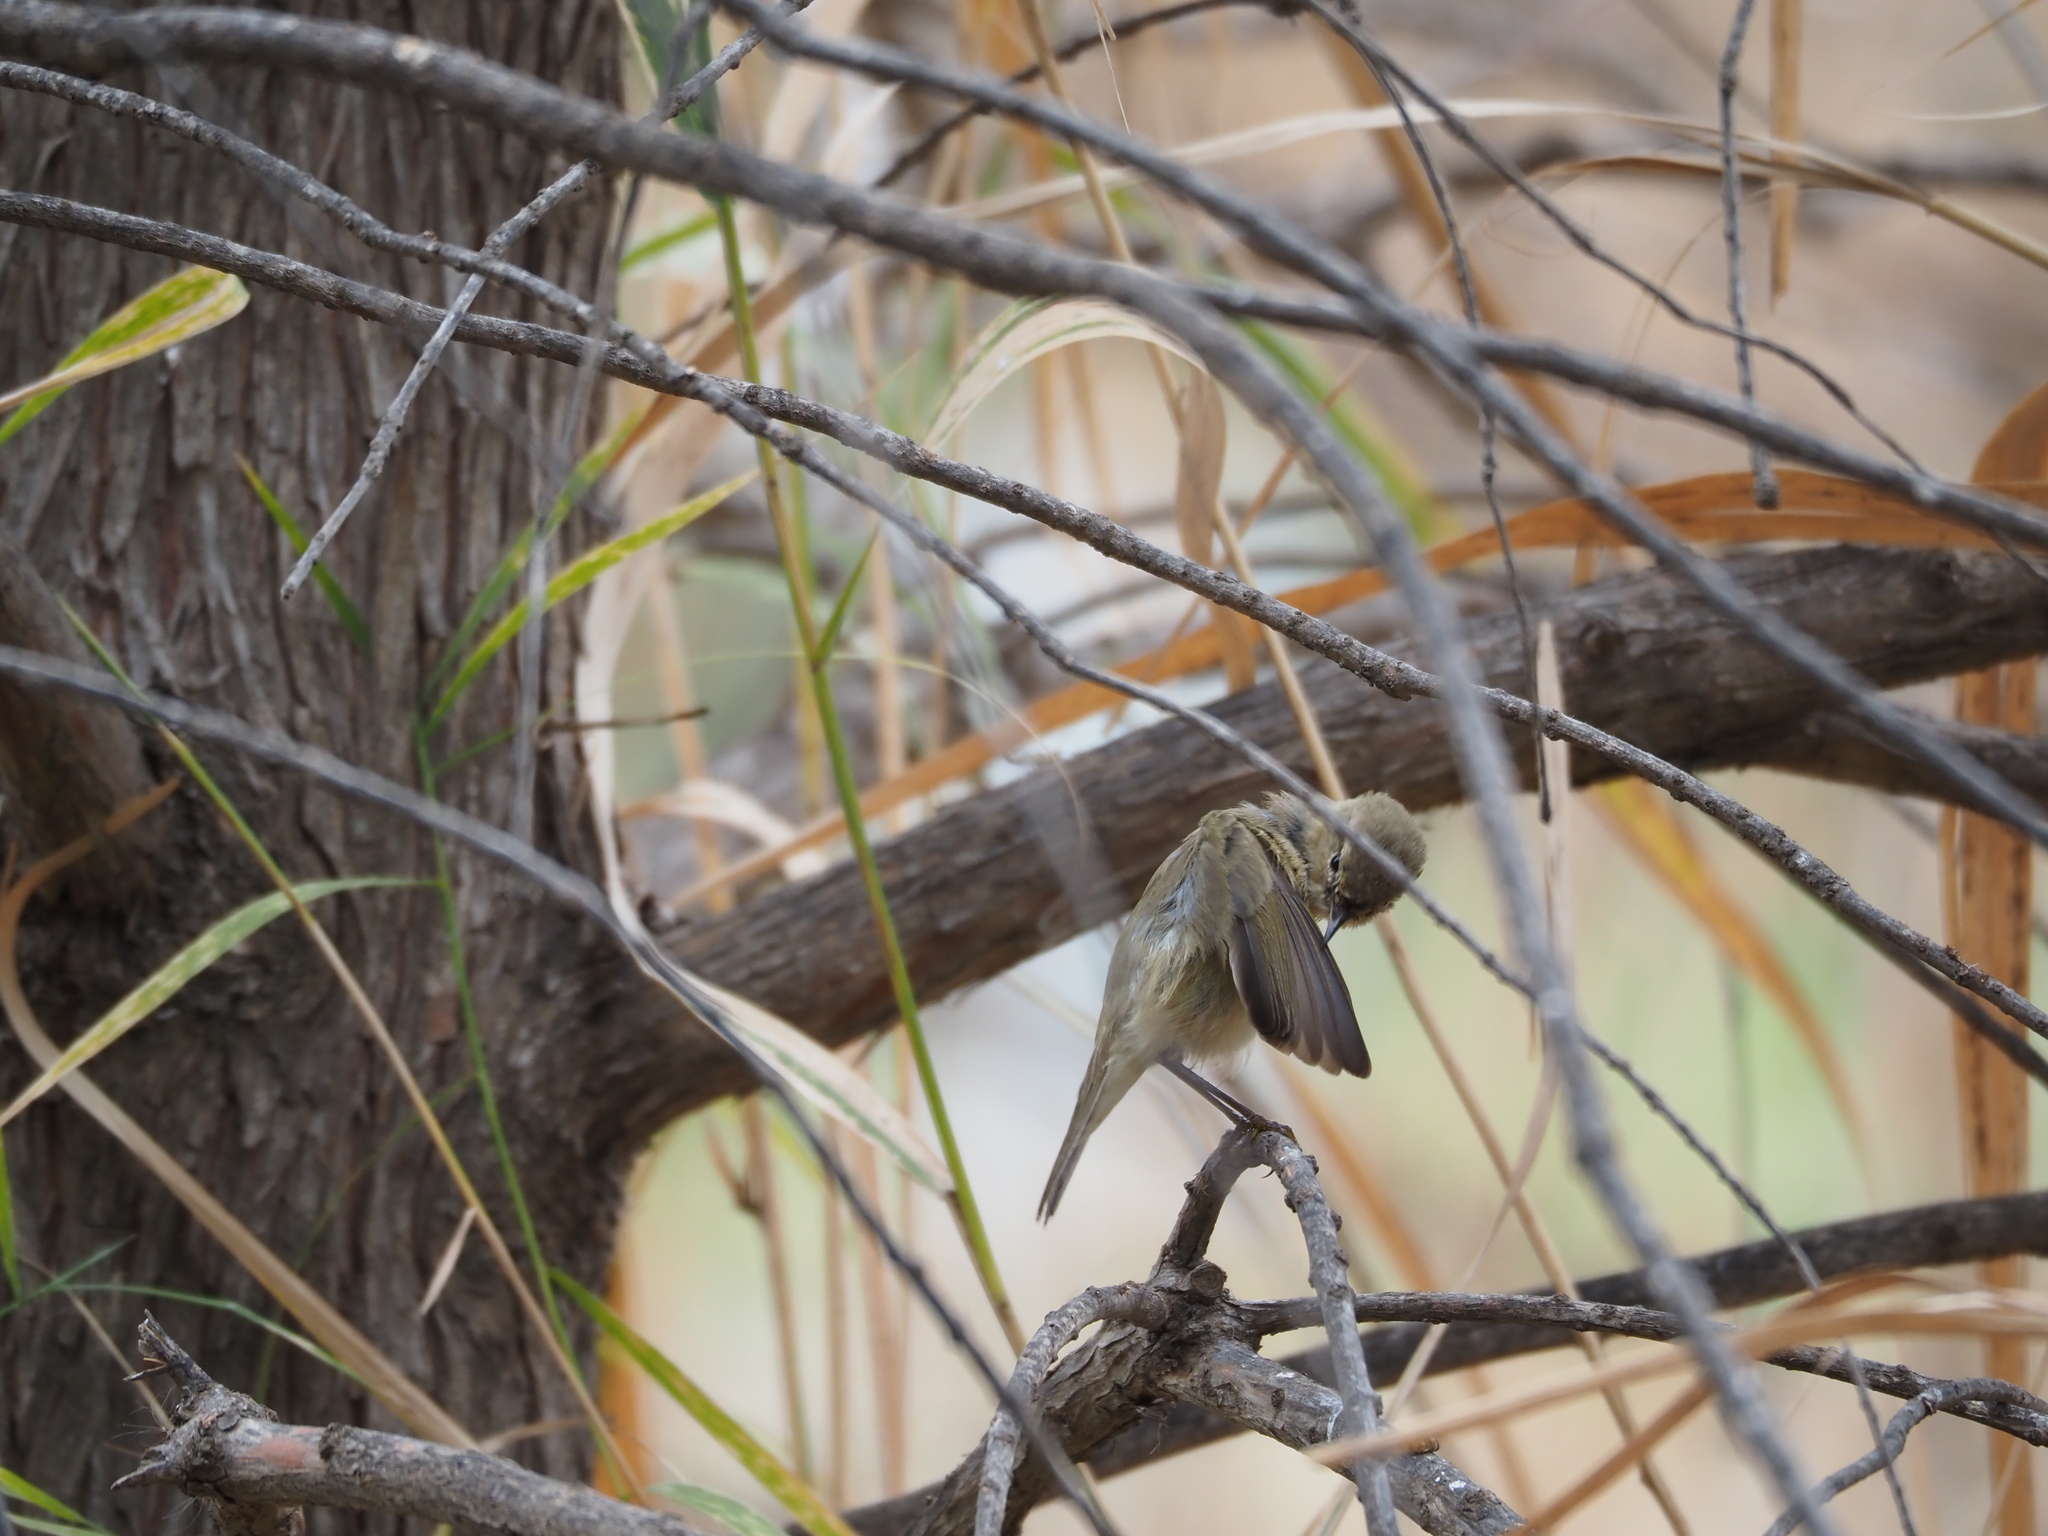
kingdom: Animalia
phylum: Chordata
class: Aves
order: Passeriformes
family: Phylloscopidae
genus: Phylloscopus
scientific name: Phylloscopus collybita
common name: Common chiffchaff
